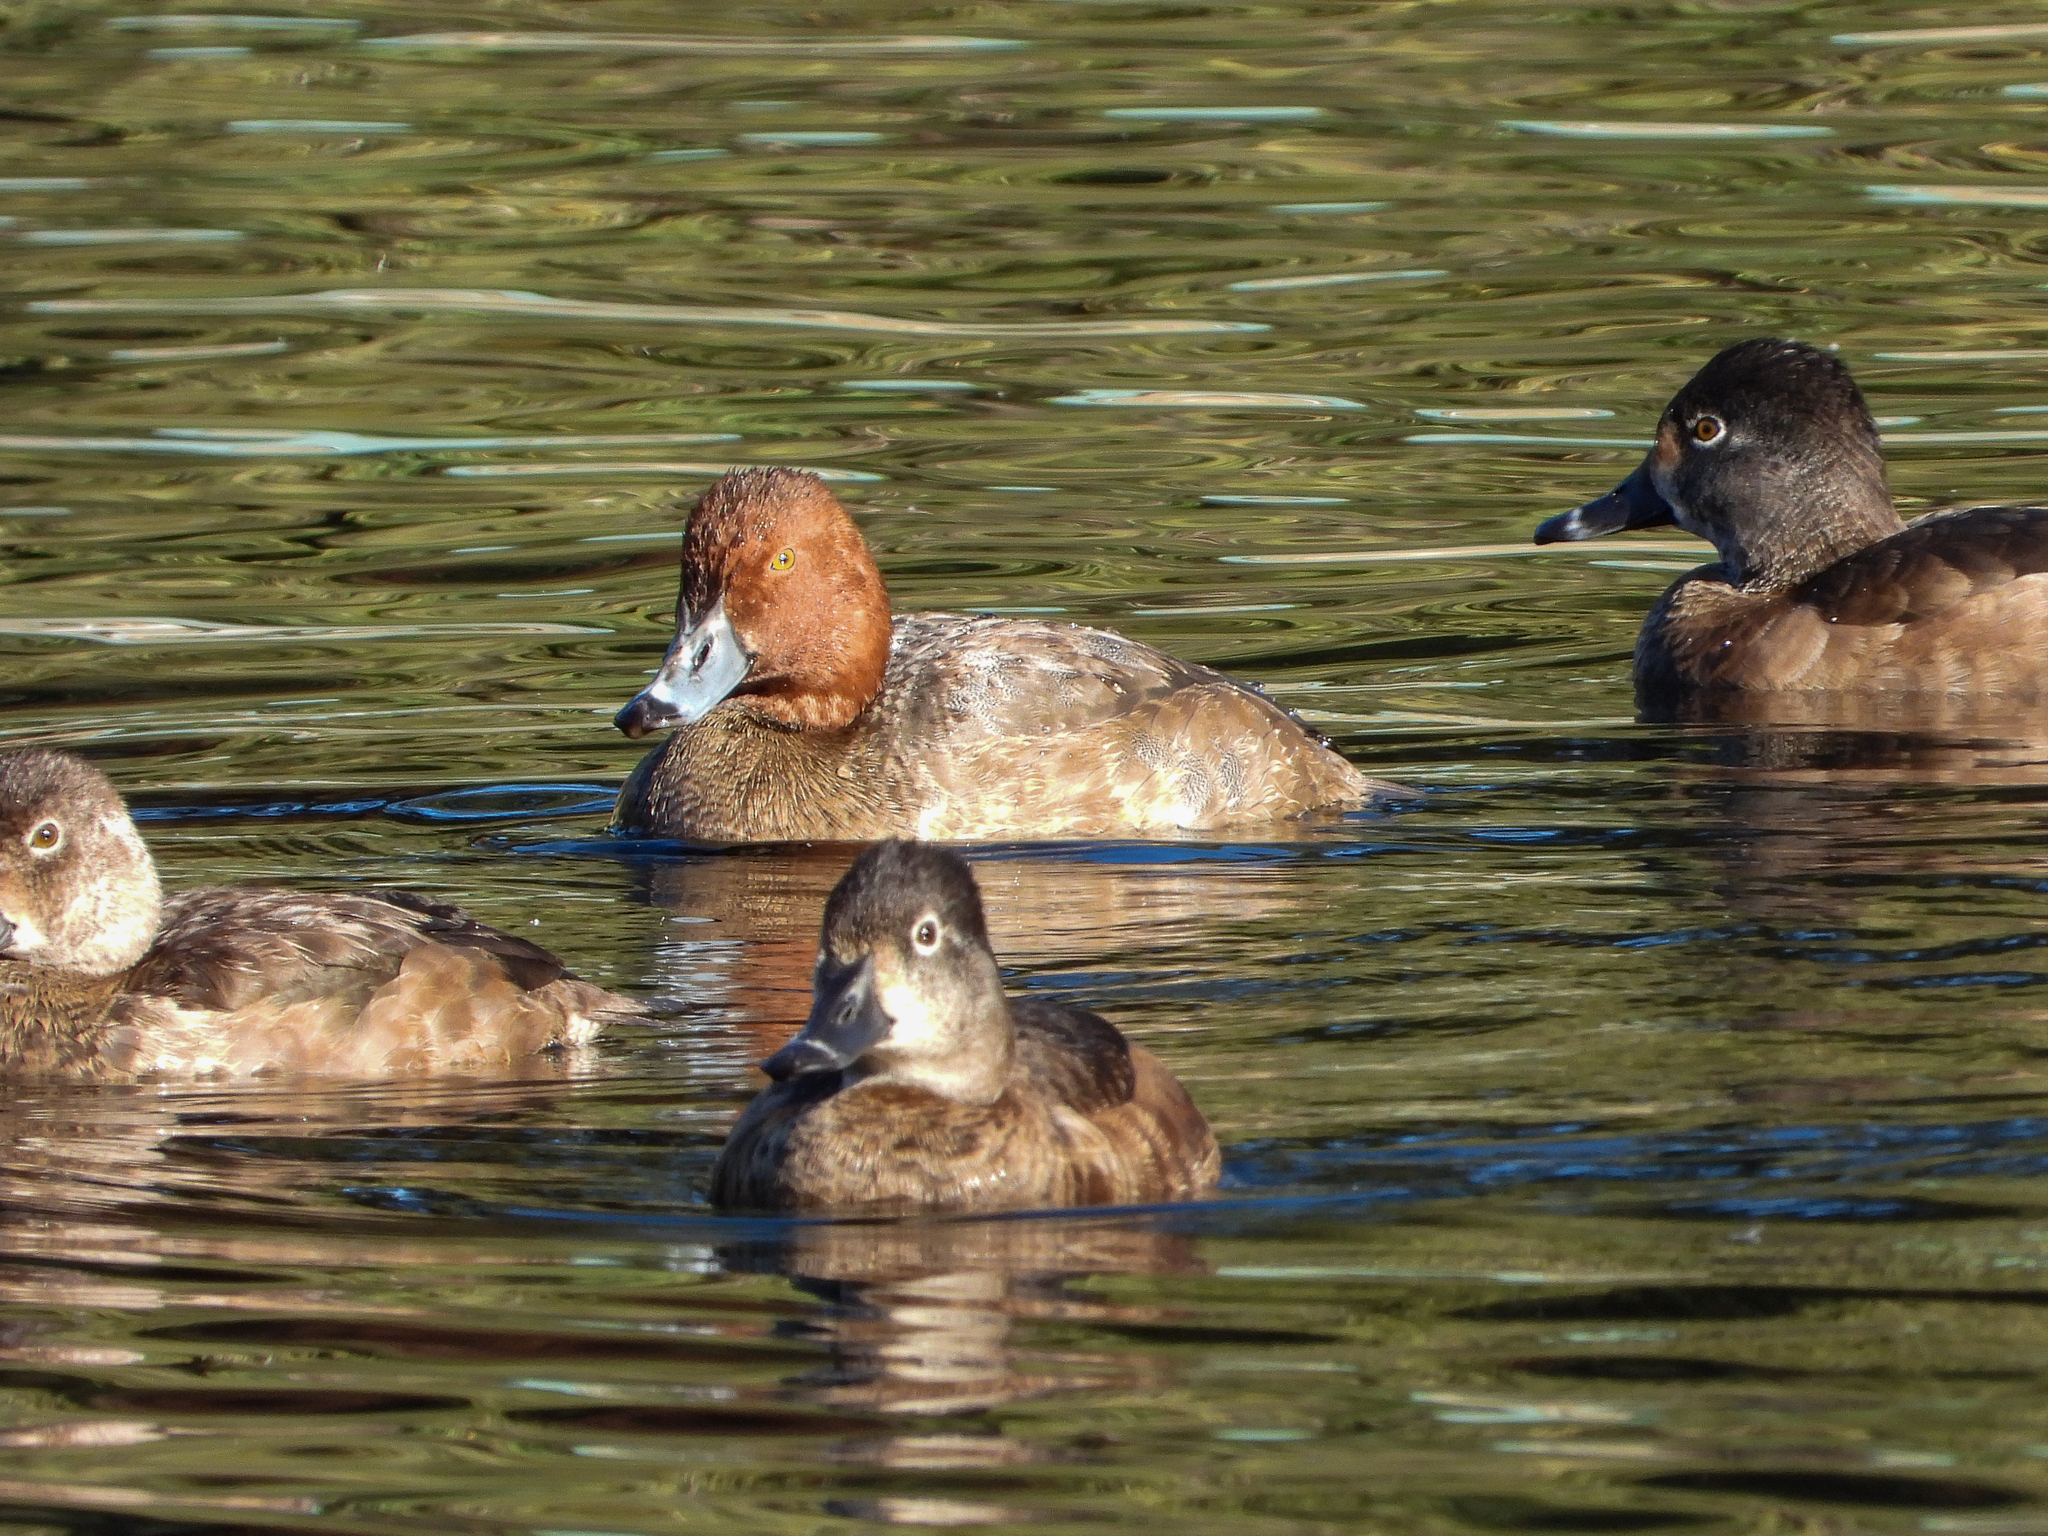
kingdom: Animalia
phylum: Chordata
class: Aves
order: Anseriformes
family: Anatidae
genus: Aythya
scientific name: Aythya americana
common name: Redhead
